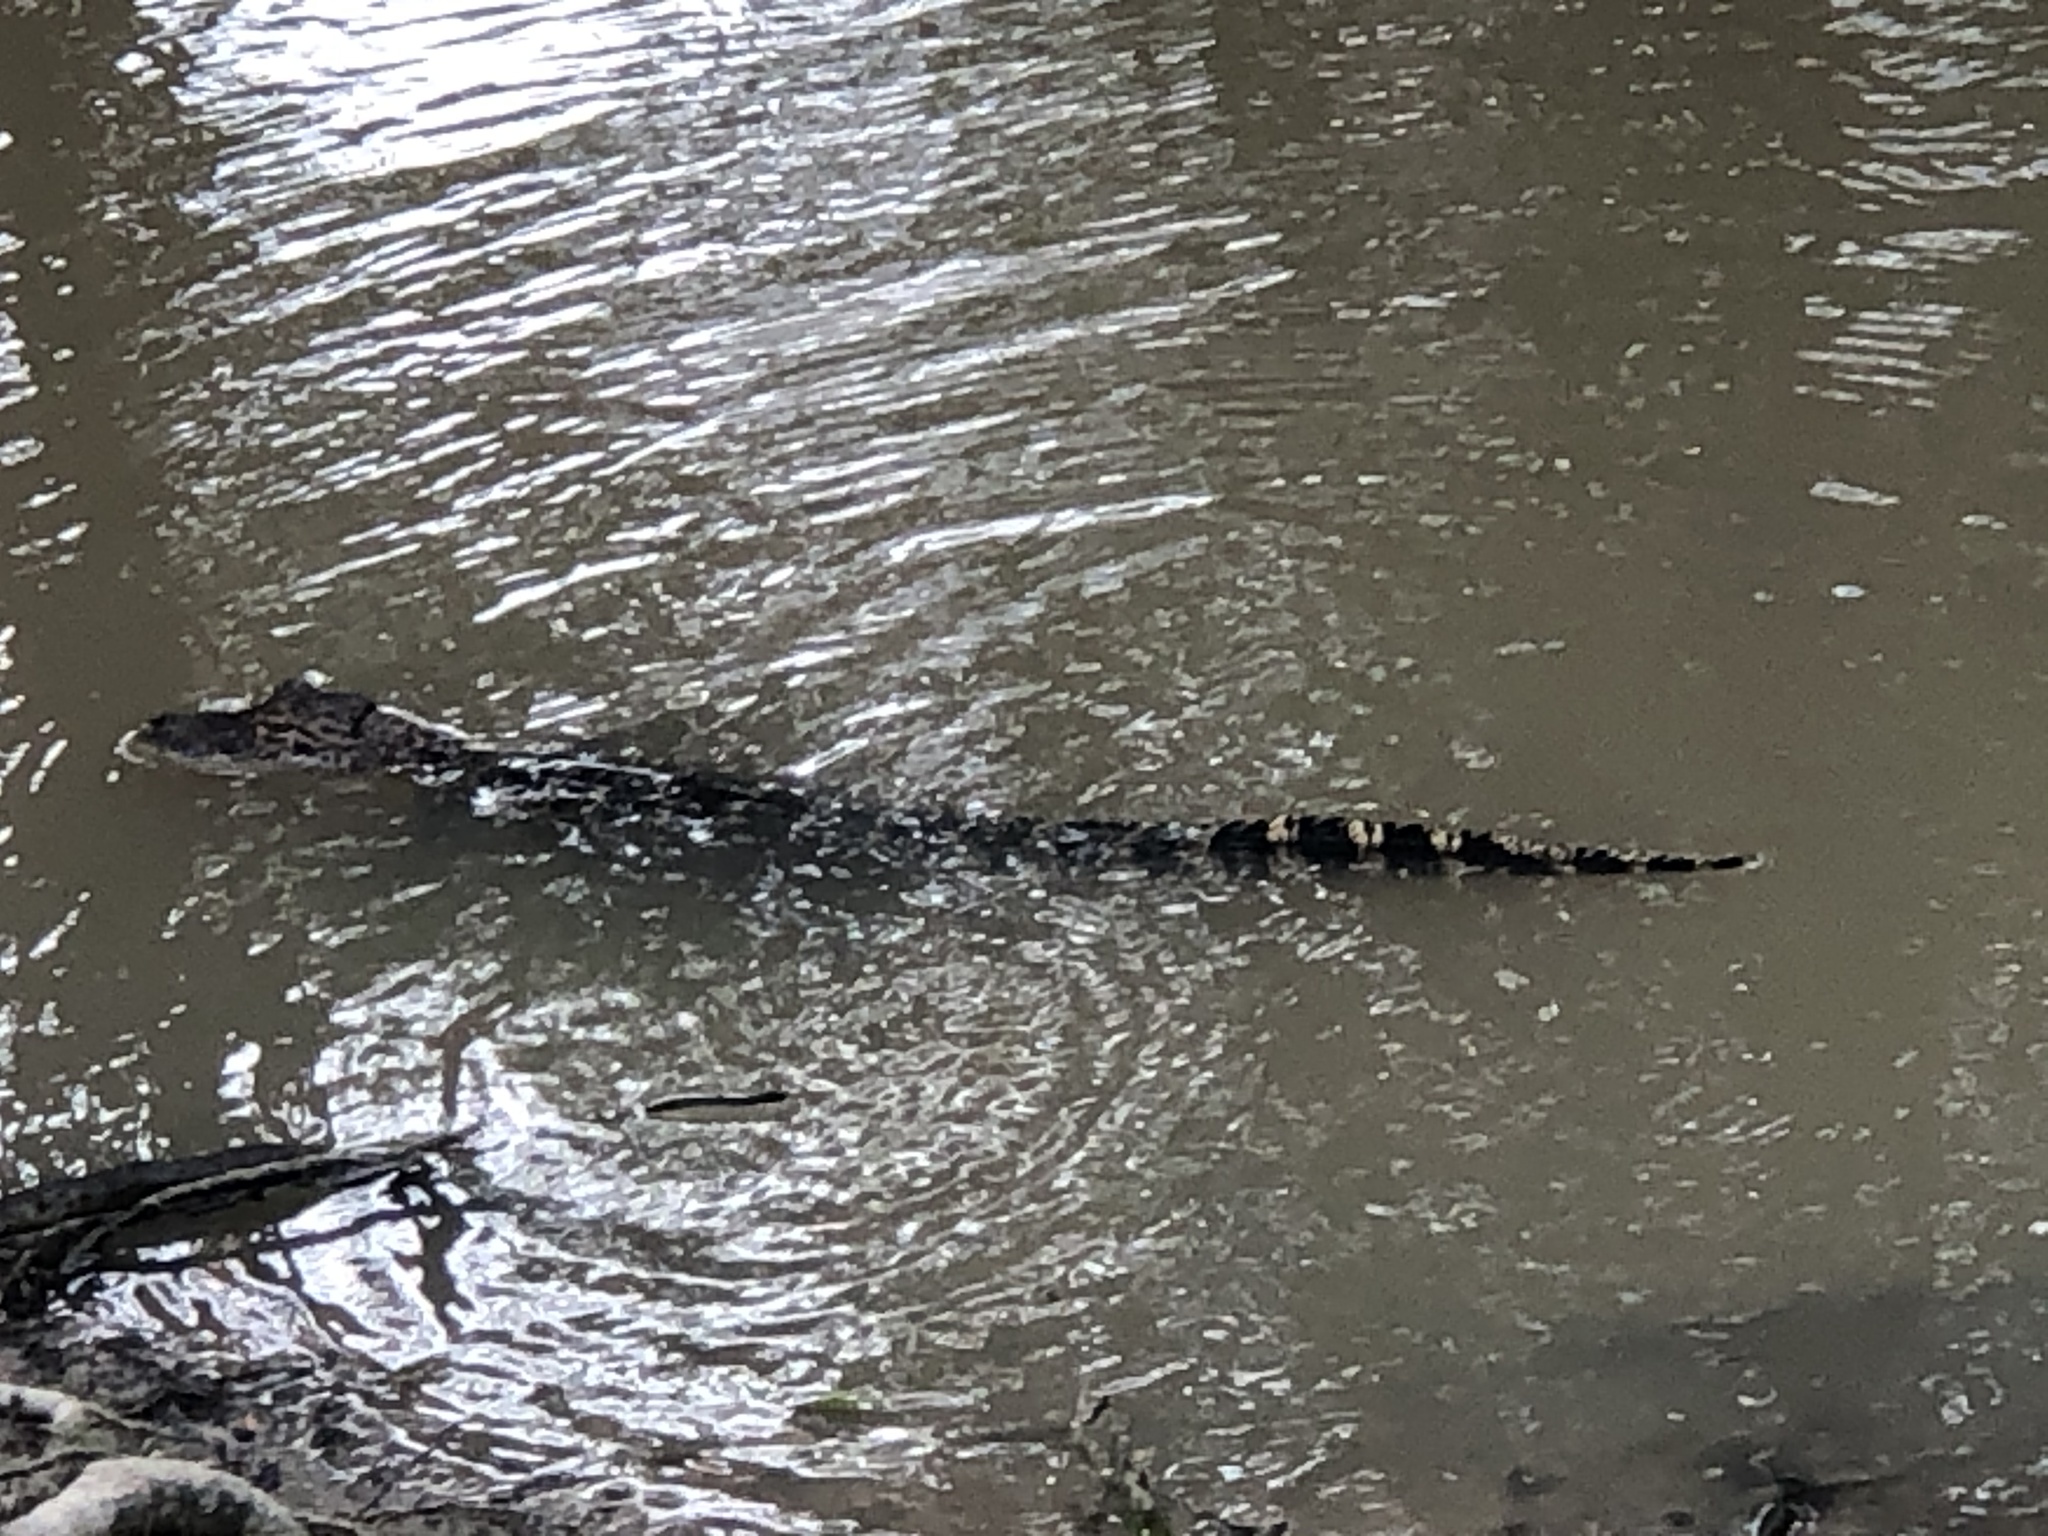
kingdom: Animalia
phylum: Chordata
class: Crocodylia
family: Alligatoridae
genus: Alligator
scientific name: Alligator mississippiensis
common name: American alligator
